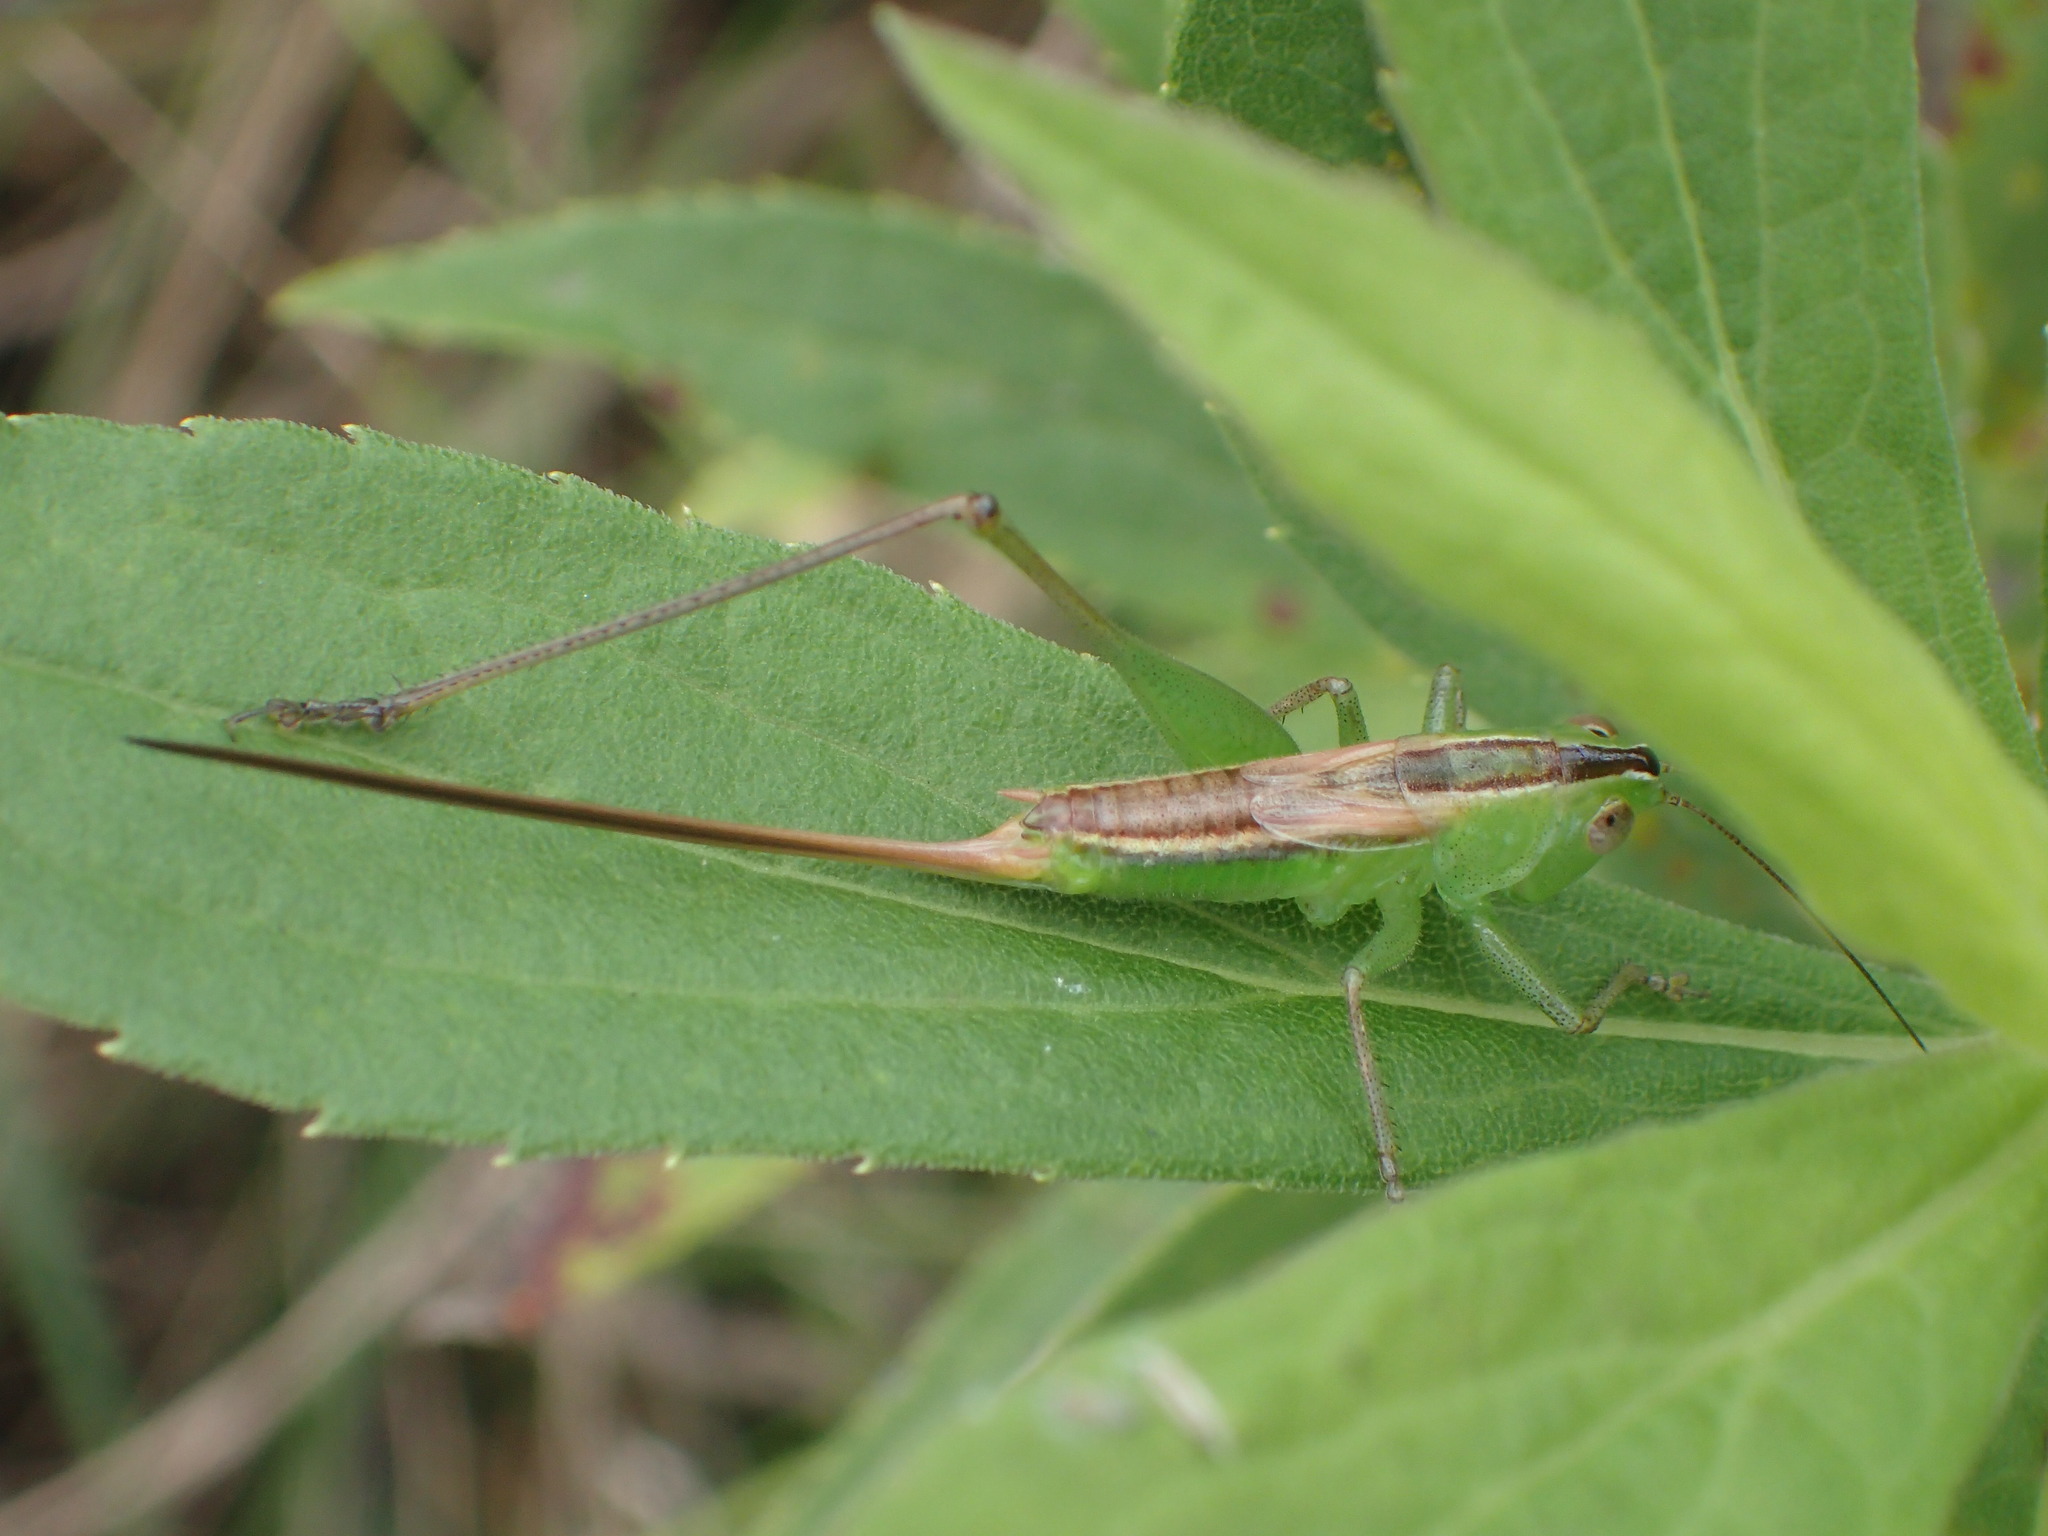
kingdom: Animalia
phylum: Arthropoda
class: Insecta
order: Orthoptera
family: Tettigoniidae
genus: Conocephalus
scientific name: Conocephalus strictus
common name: Straight-lanced katydid
